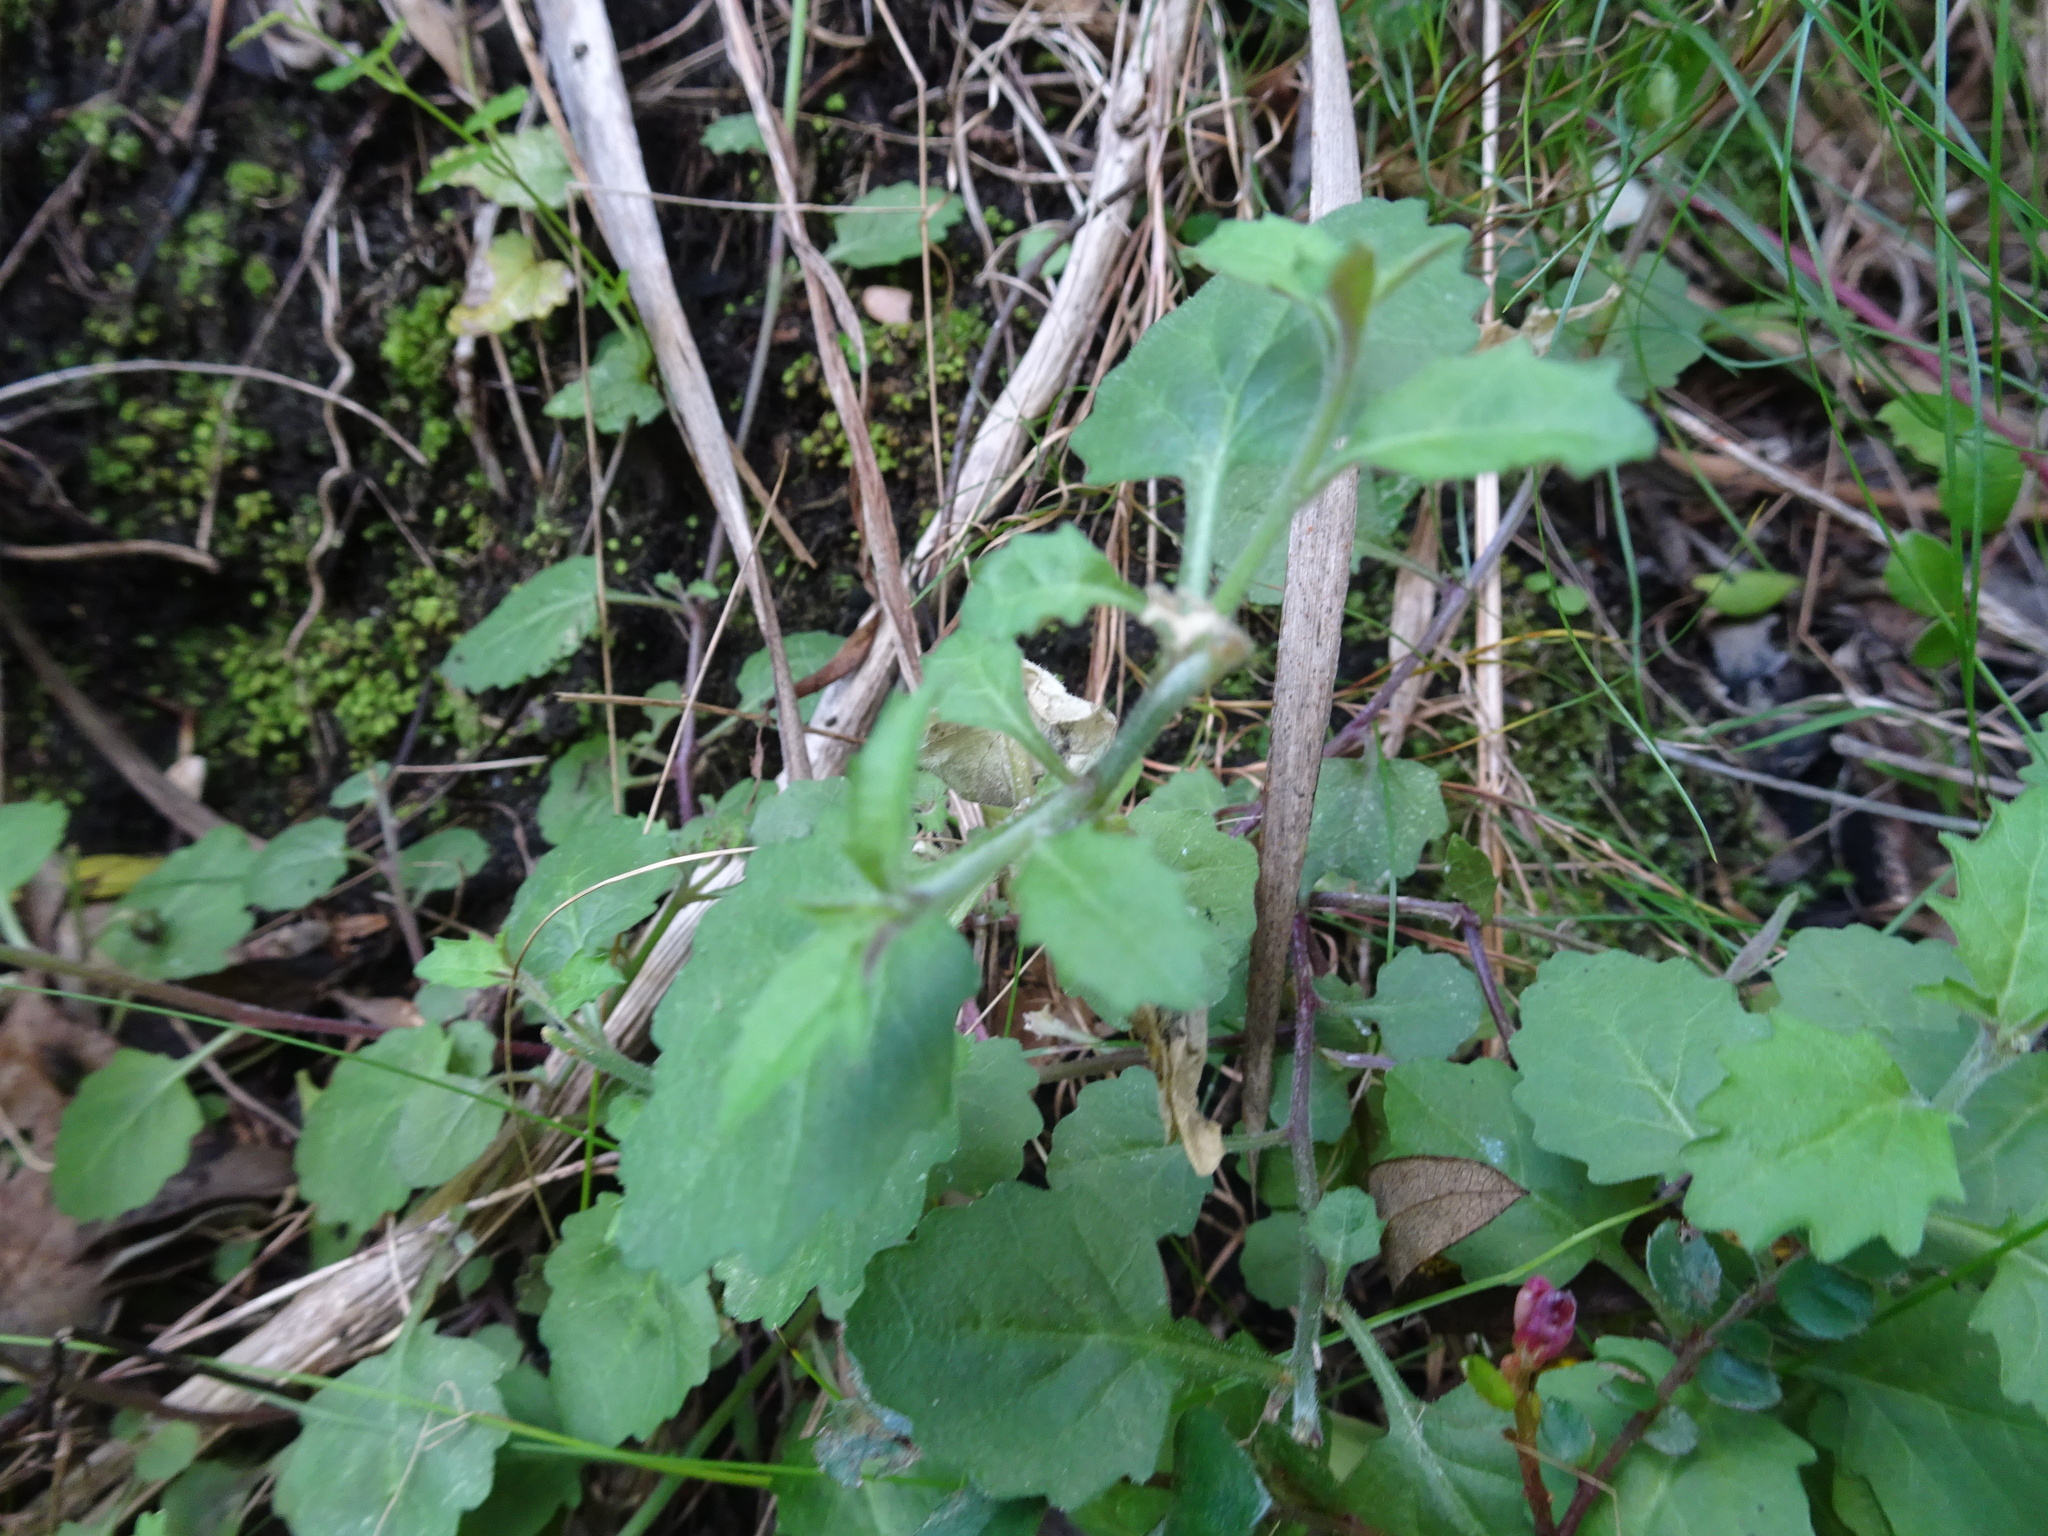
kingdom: Plantae
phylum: Tracheophyta
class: Magnoliopsida
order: Asterales
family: Campanulaceae
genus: Lobelia
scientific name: Lobelia pubescens
